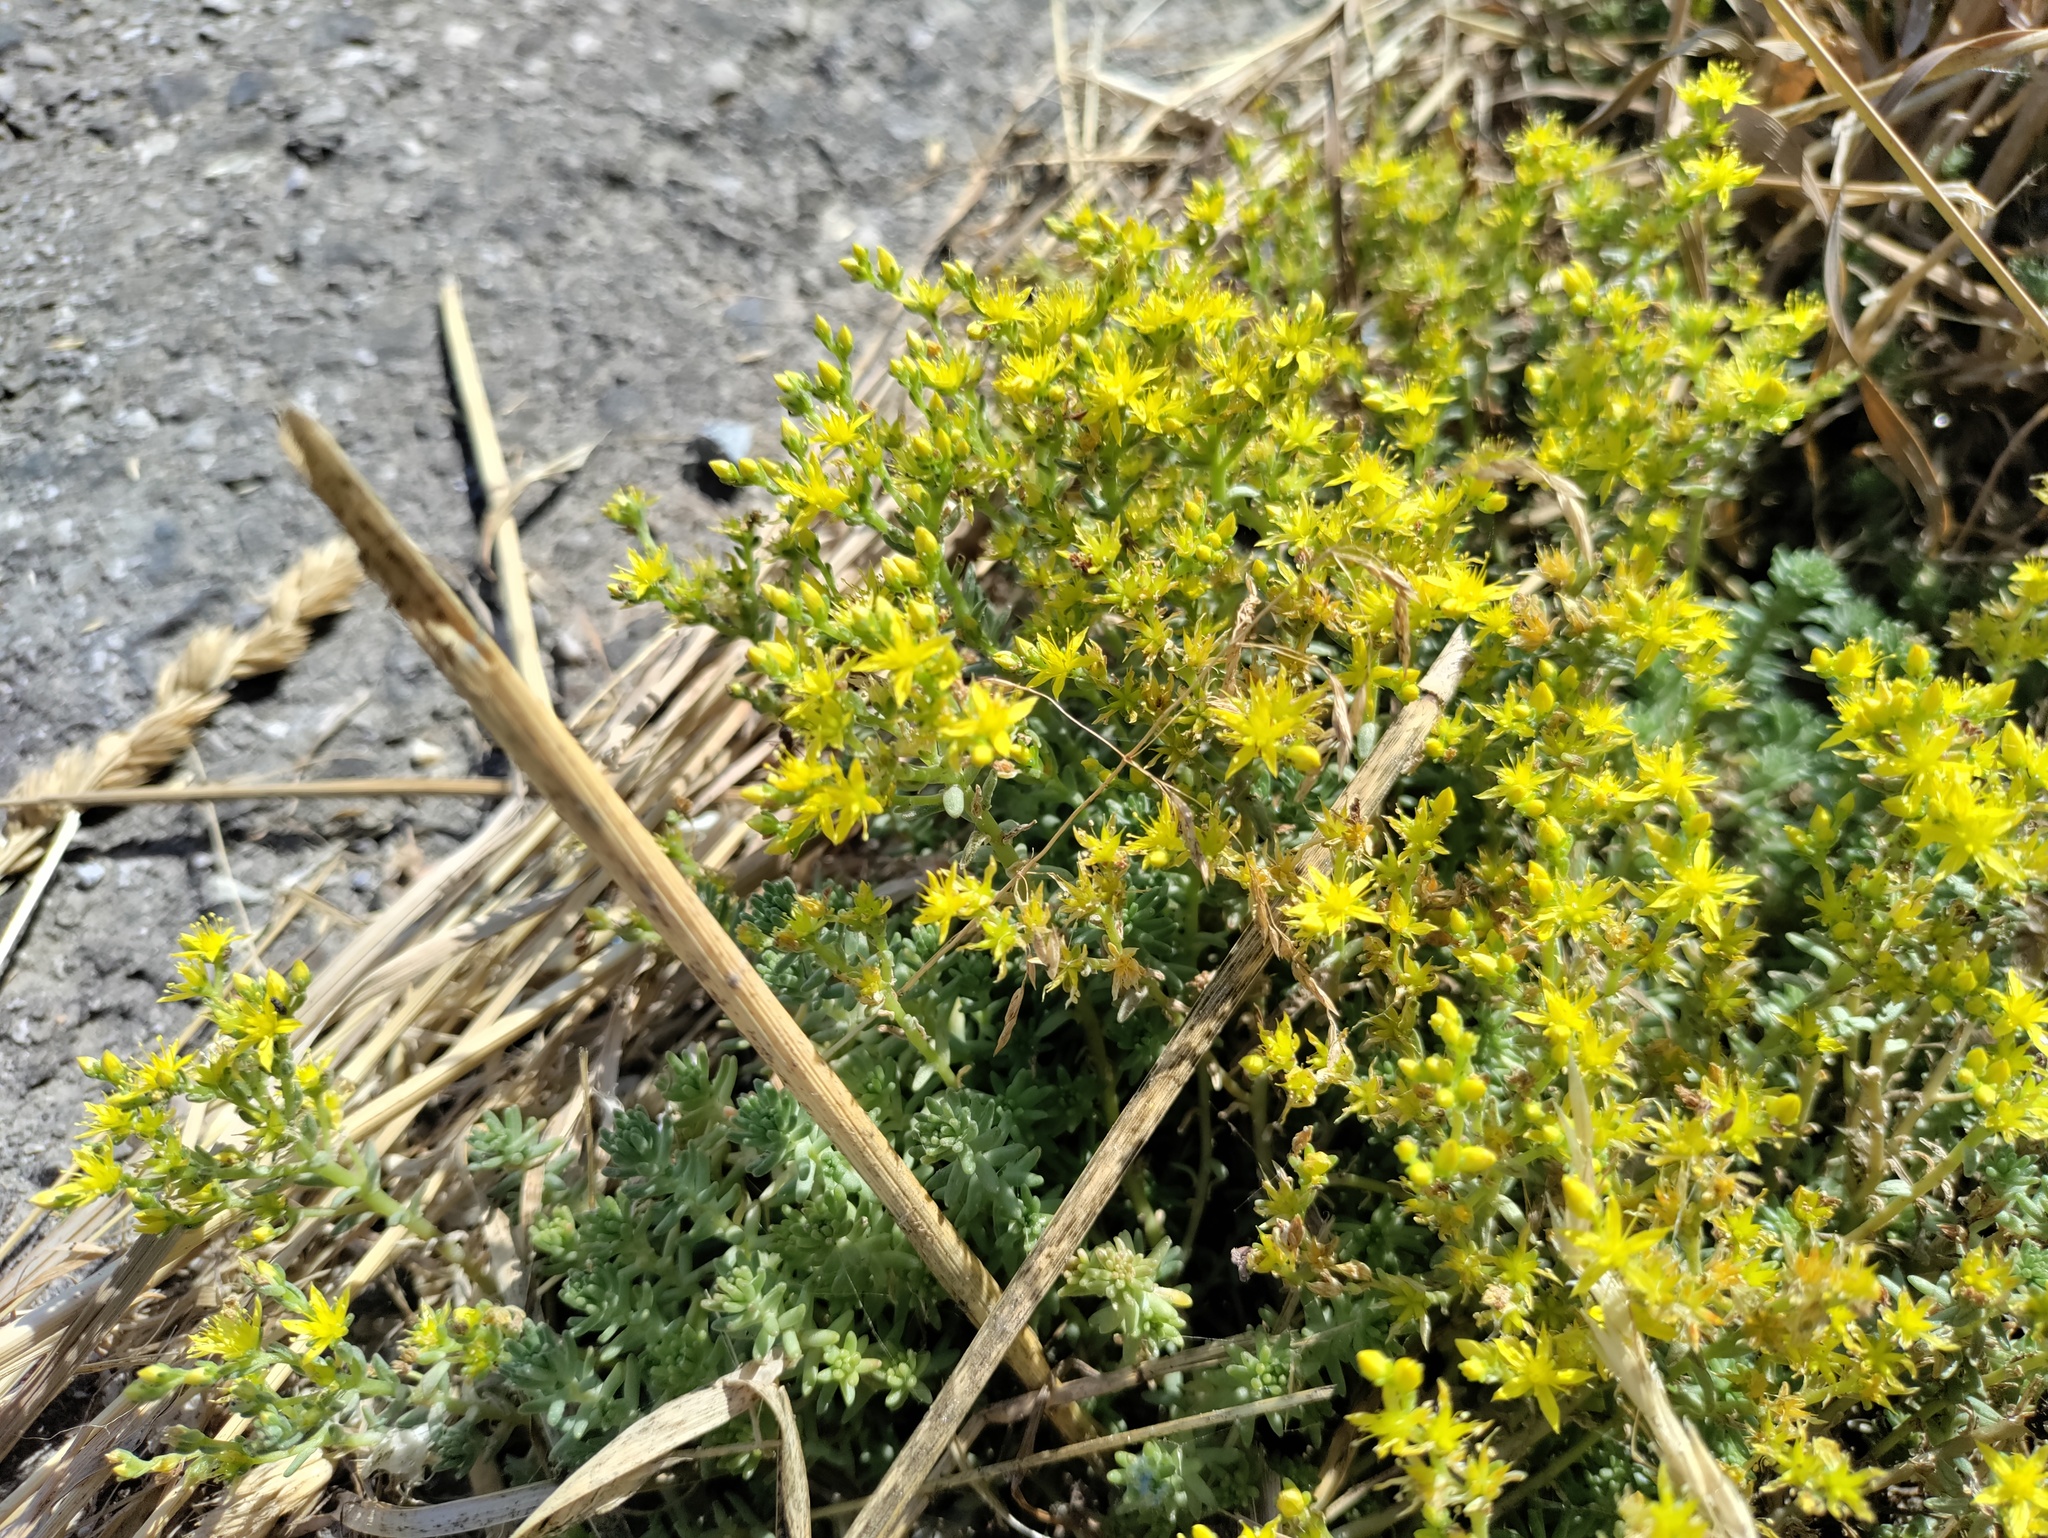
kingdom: Plantae
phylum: Tracheophyta
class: Magnoliopsida
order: Saxifragales
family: Crassulaceae
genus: Sedum
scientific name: Sedum sexangulare
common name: Tasteless stonecrop
